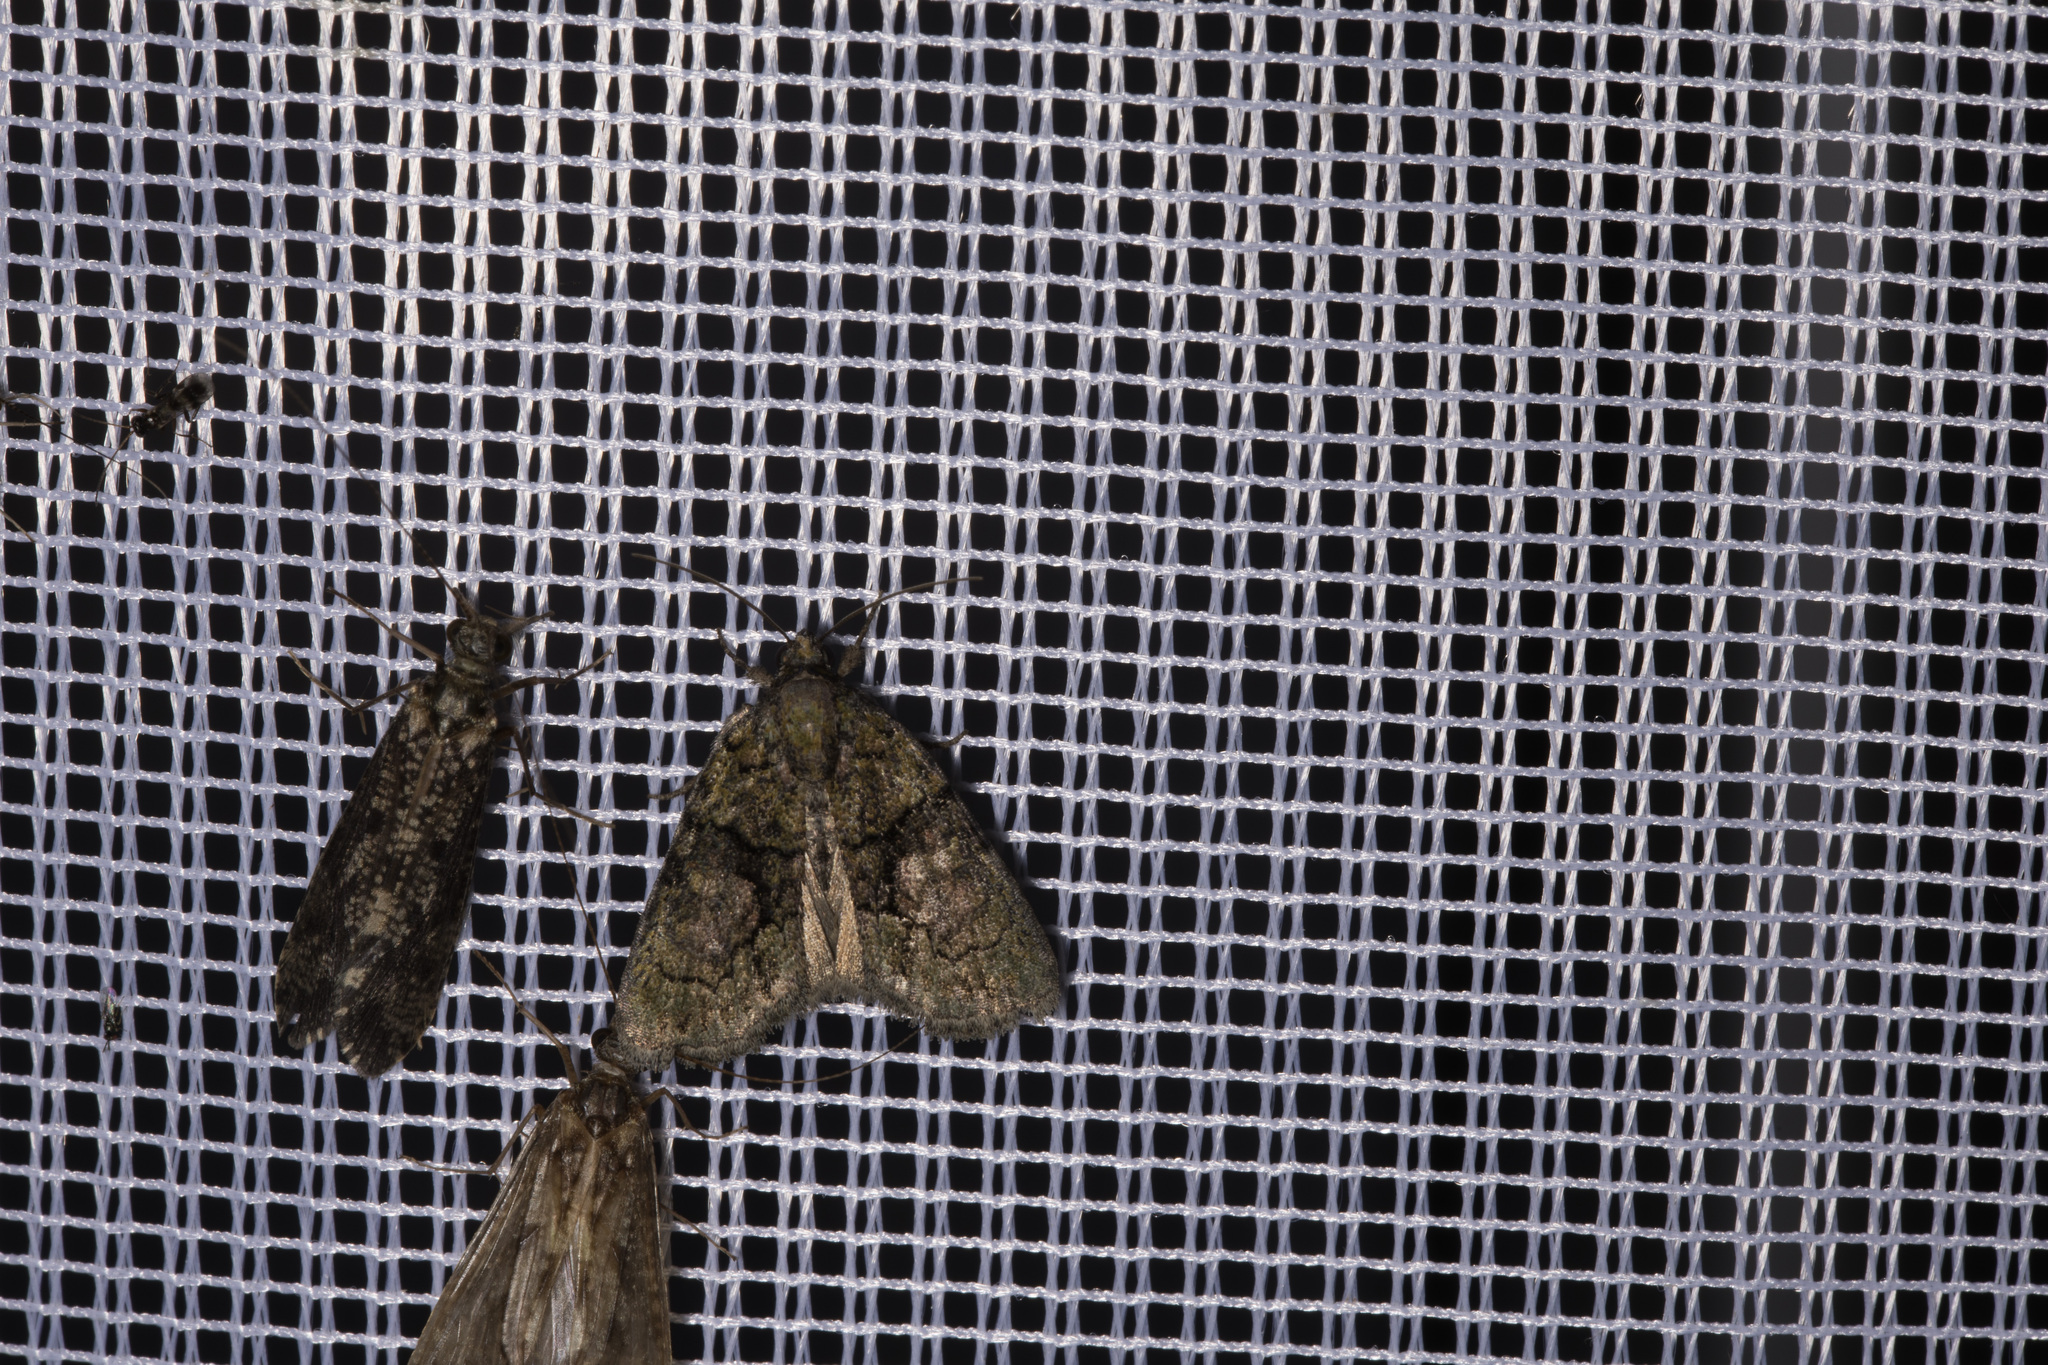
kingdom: Animalia
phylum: Arthropoda
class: Insecta
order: Lepidoptera
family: Noctuidae
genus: Cryphia
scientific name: Cryphia algae
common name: Tree-lichen beauty
